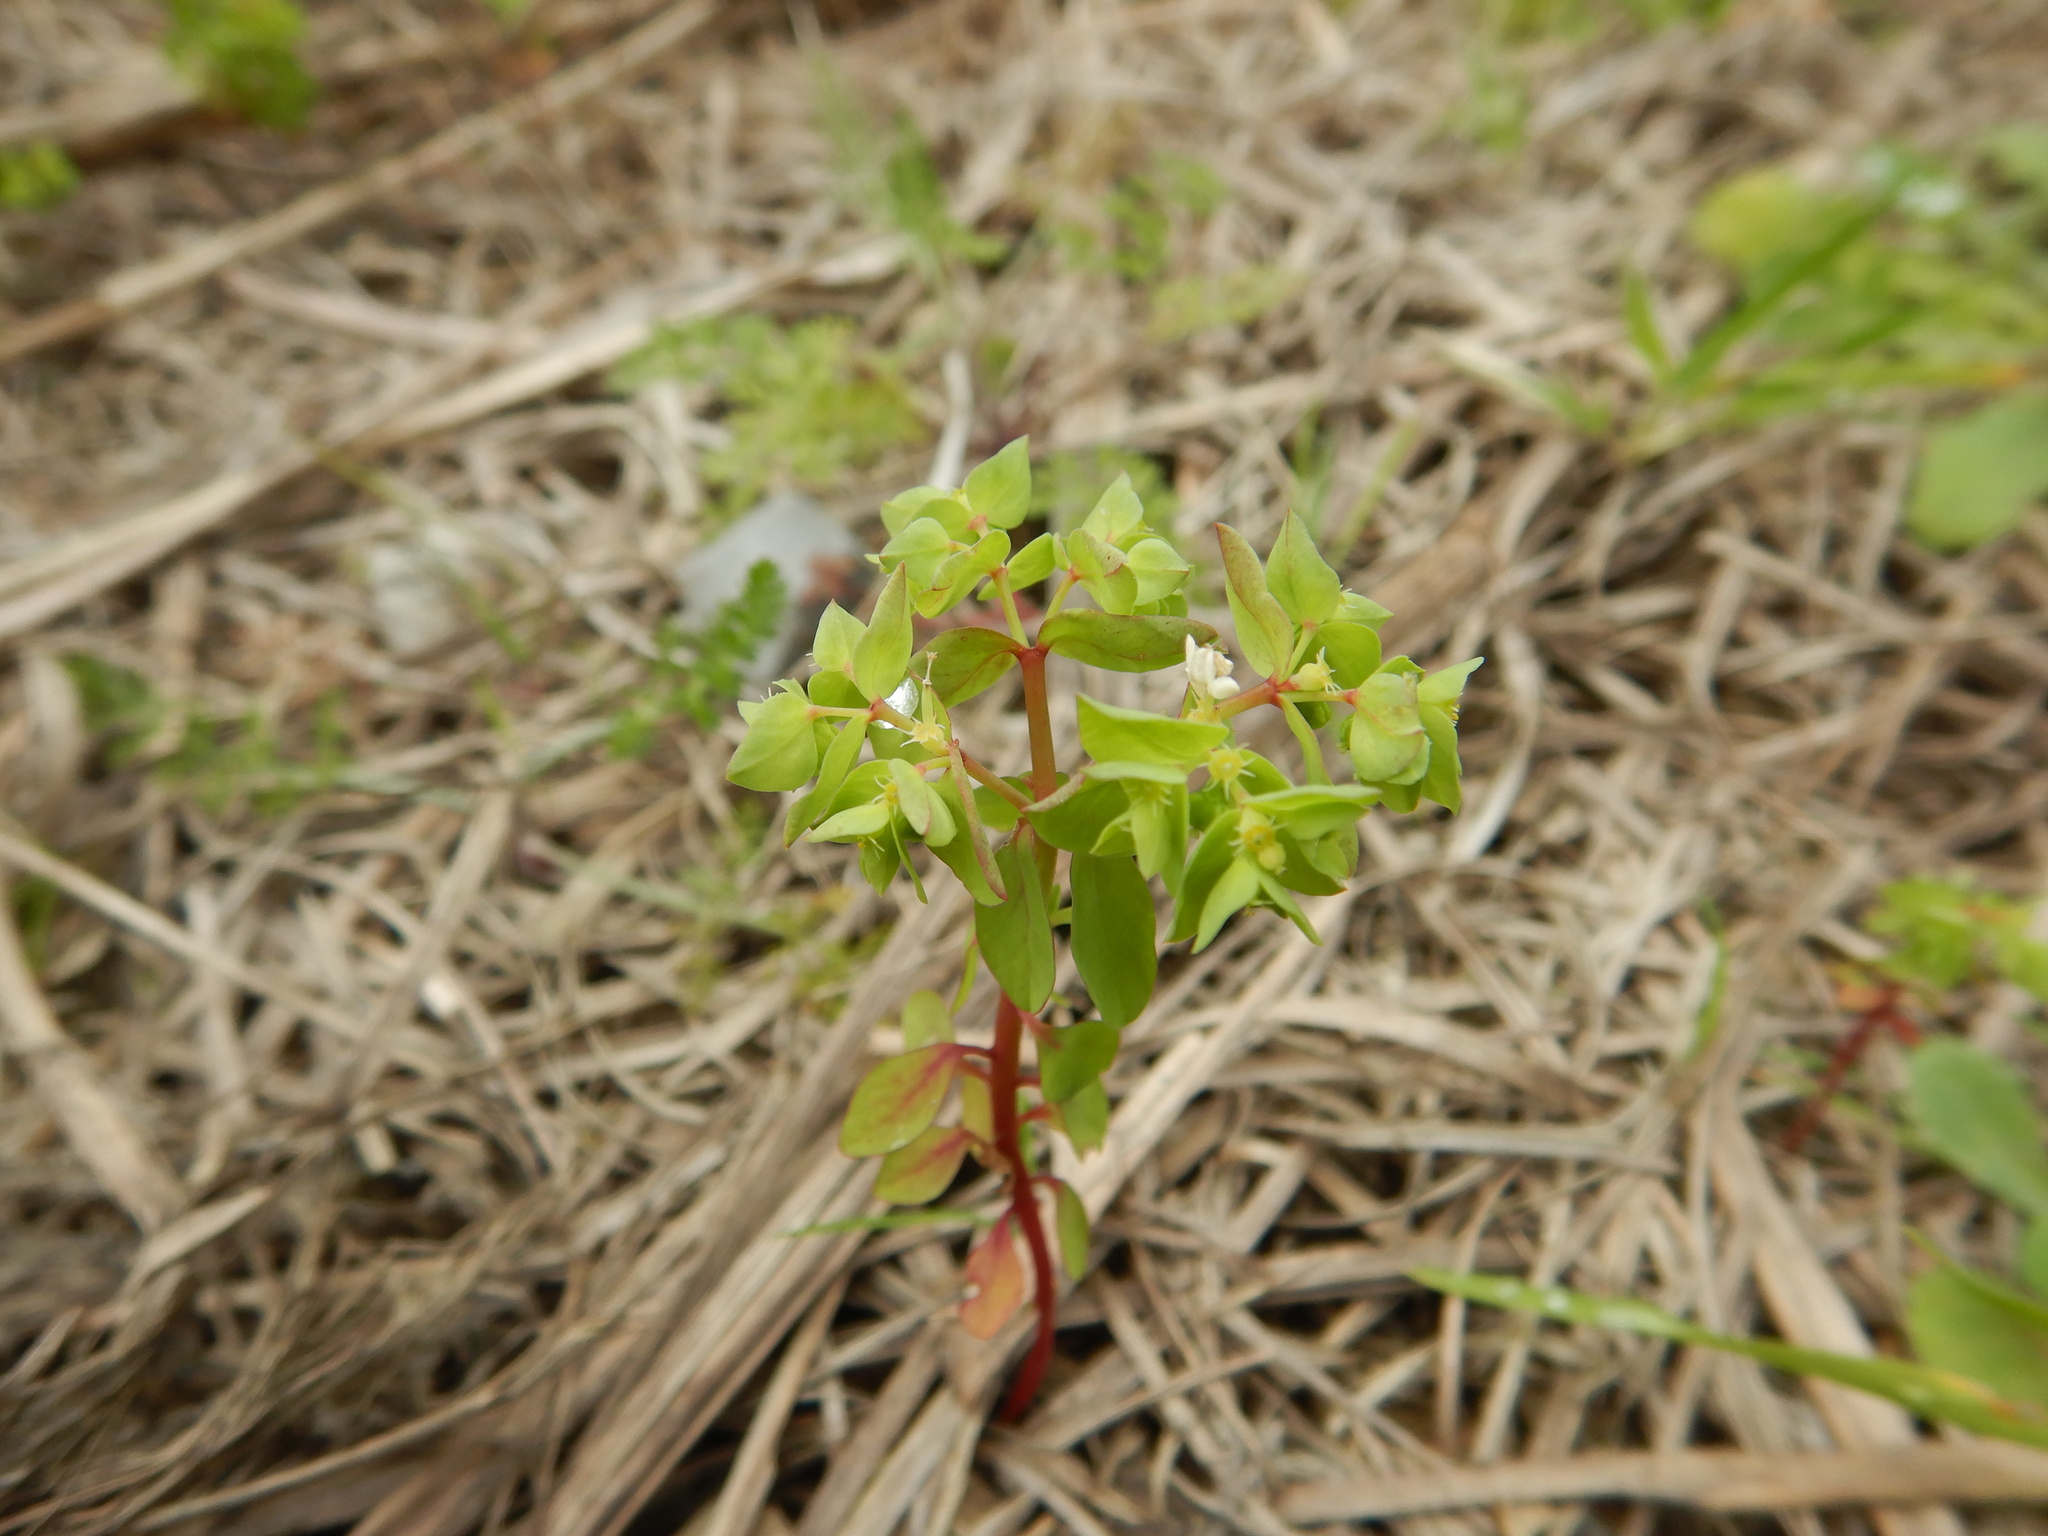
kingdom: Plantae
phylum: Tracheophyta
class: Magnoliopsida
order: Malpighiales
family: Euphorbiaceae
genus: Euphorbia
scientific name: Euphorbia peplus
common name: Petty spurge
